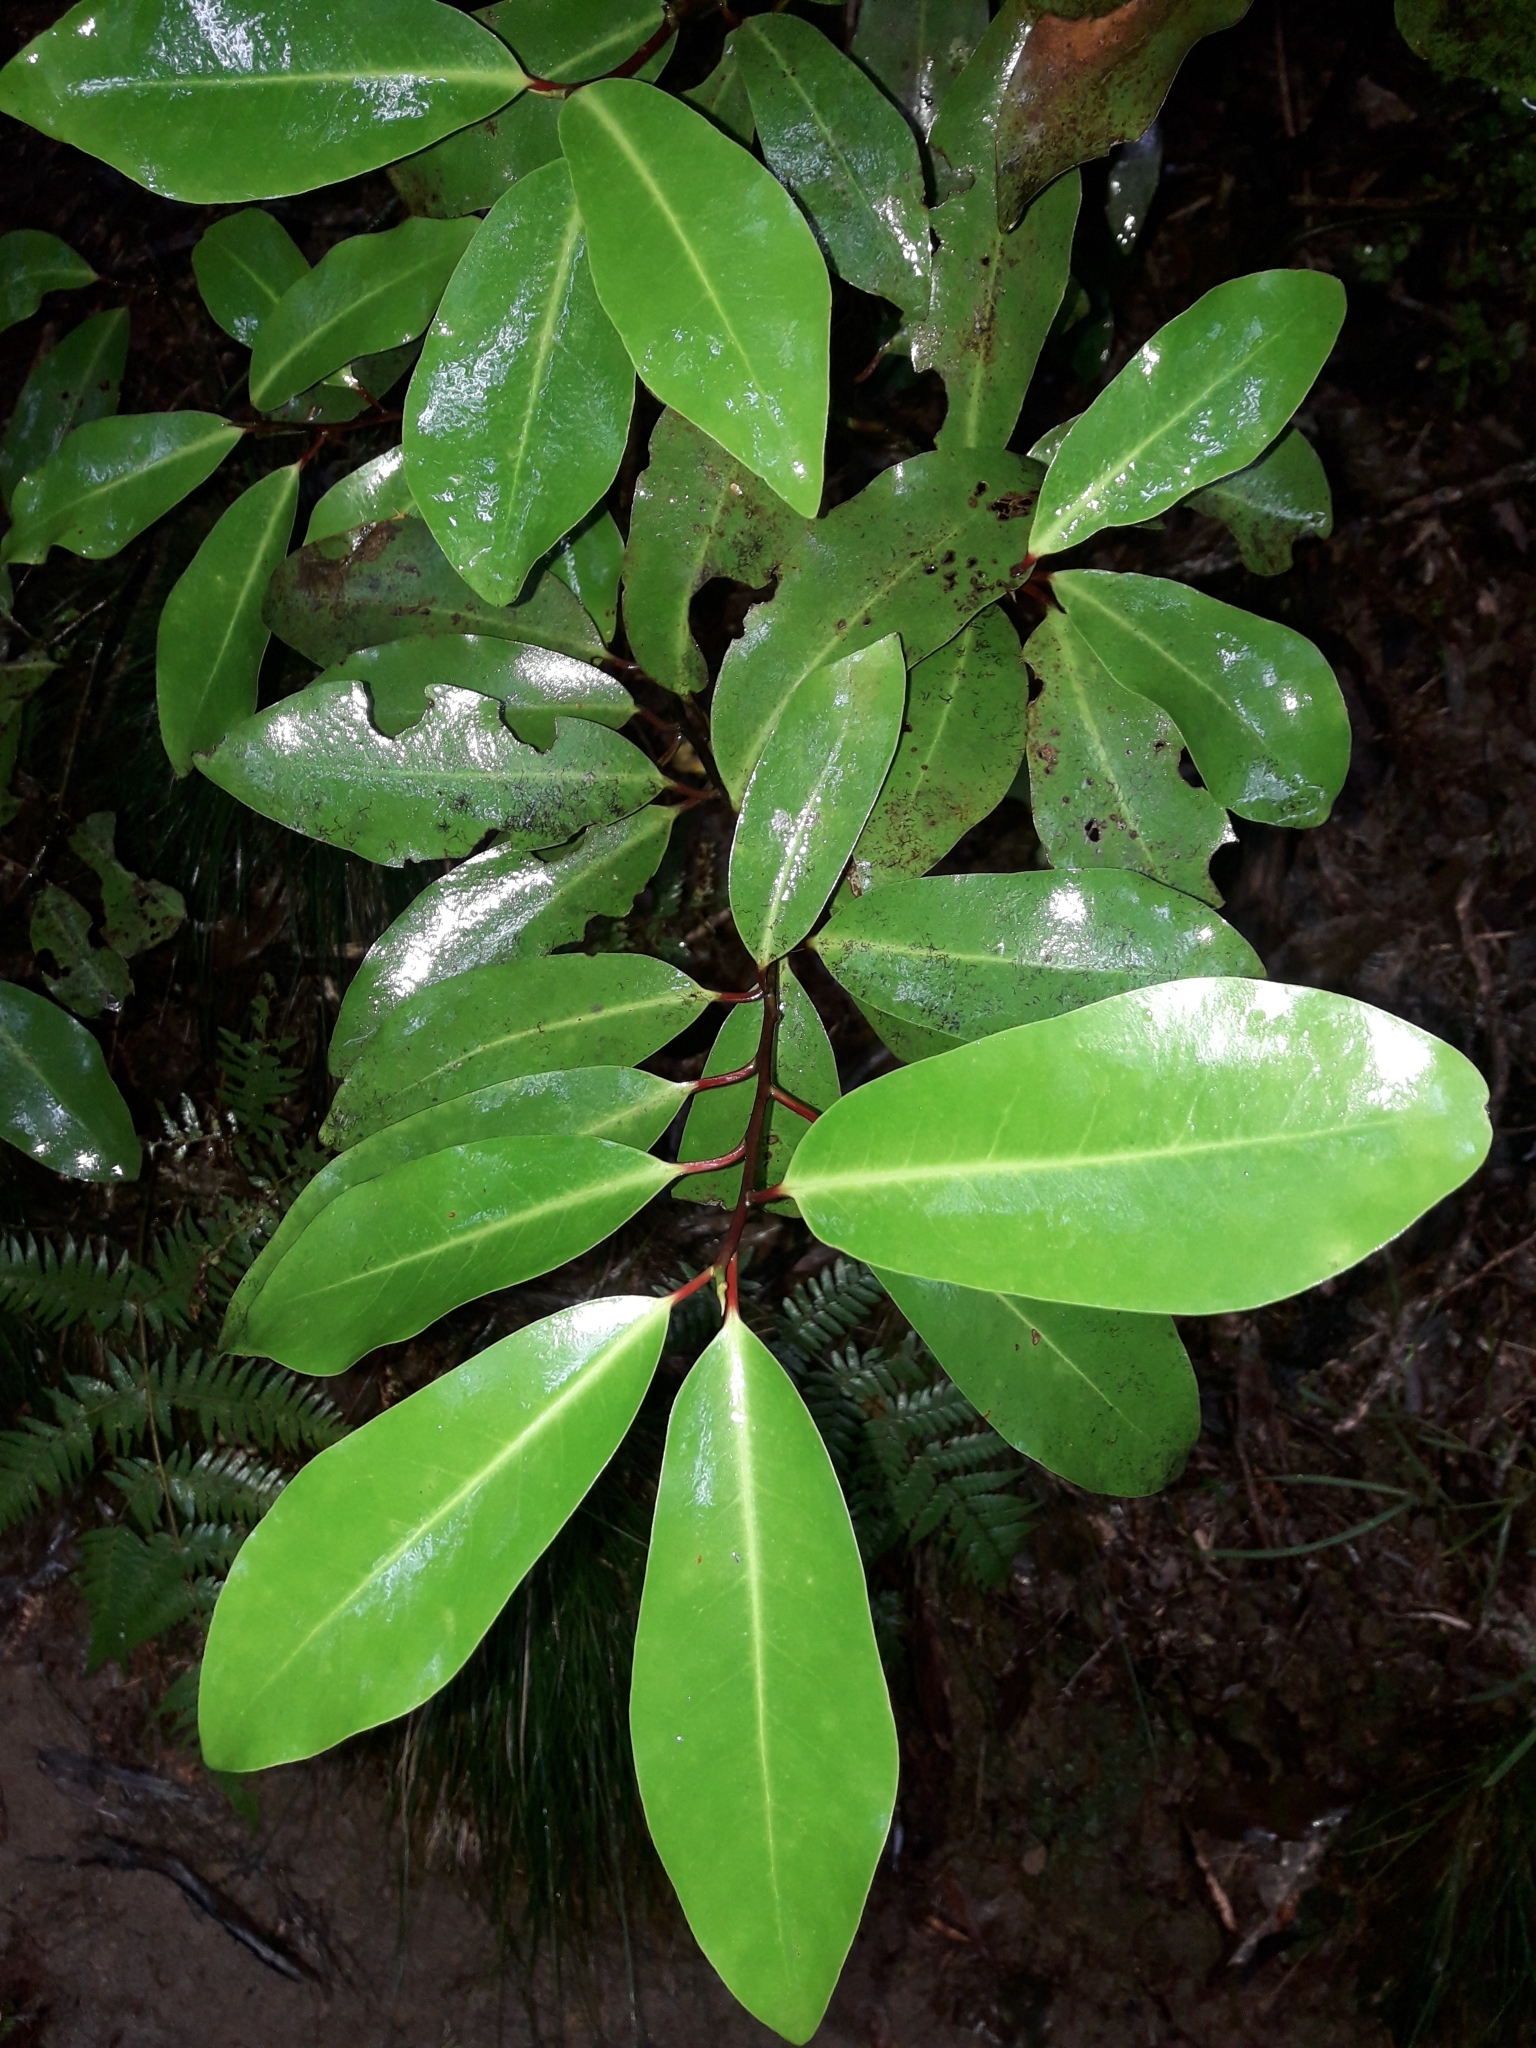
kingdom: Plantae
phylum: Tracheophyta
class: Magnoliopsida
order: Canellales
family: Winteraceae
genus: Pseudowintera
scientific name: Pseudowintera axillaris
